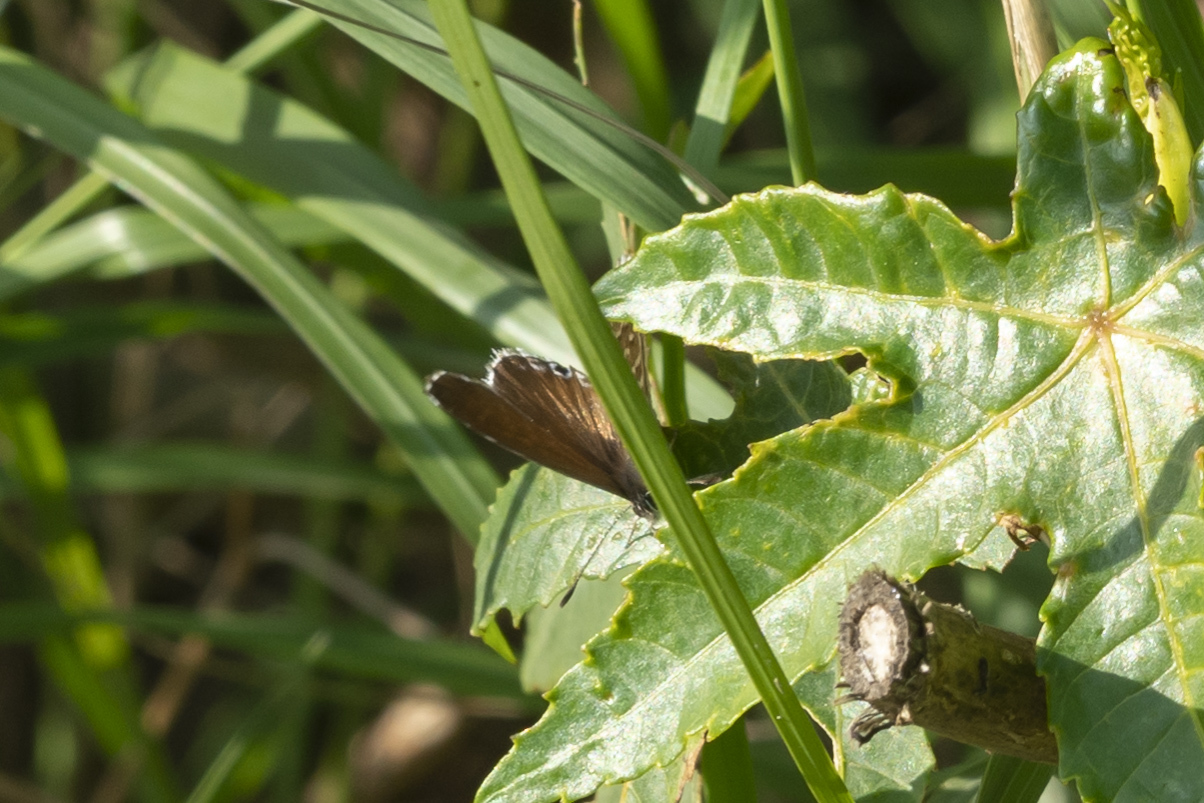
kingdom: Animalia
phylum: Arthropoda
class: Insecta
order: Lepidoptera
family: Lycaenidae
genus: Cacyreus
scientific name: Cacyreus marshalli
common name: Geranium bronze
